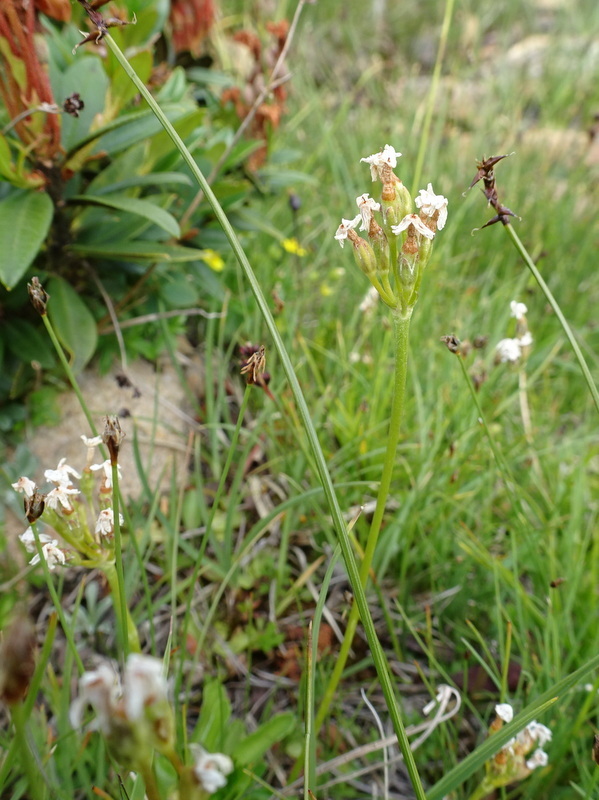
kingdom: Plantae
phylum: Tracheophyta
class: Magnoliopsida
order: Ericales
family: Primulaceae
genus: Primula
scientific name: Primula farinosa
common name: Bird's-eye primrose
